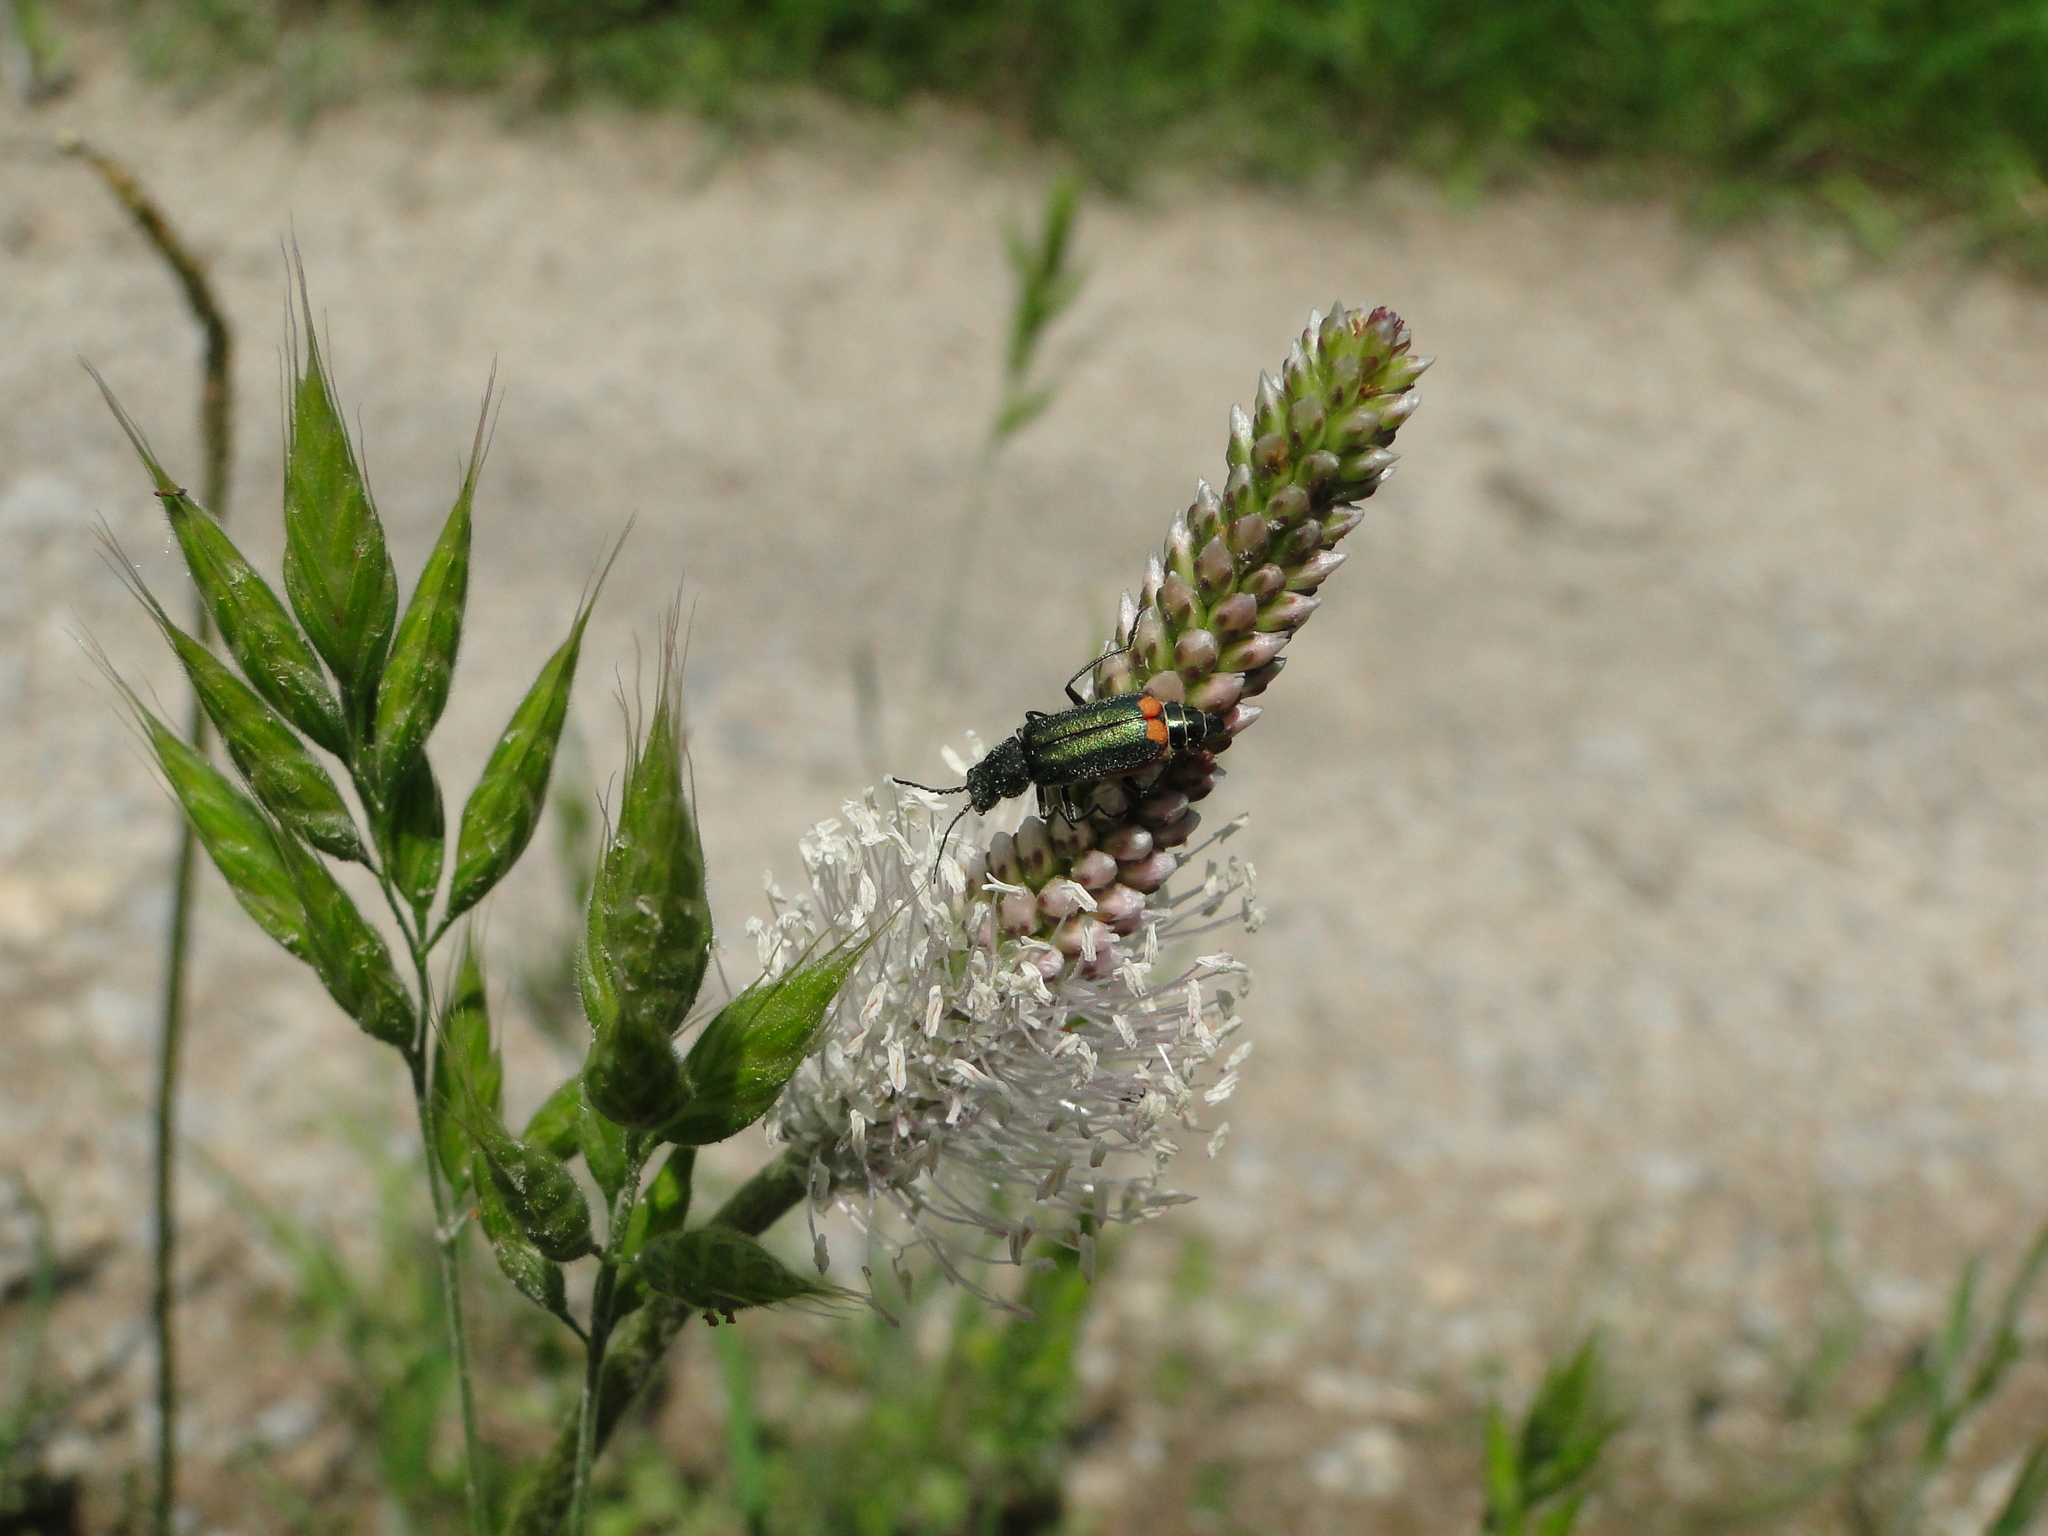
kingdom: Animalia
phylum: Arthropoda
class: Insecta
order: Coleoptera
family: Melyridae
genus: Malachius
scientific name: Malachius bipustulatus
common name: Malachite beetle
